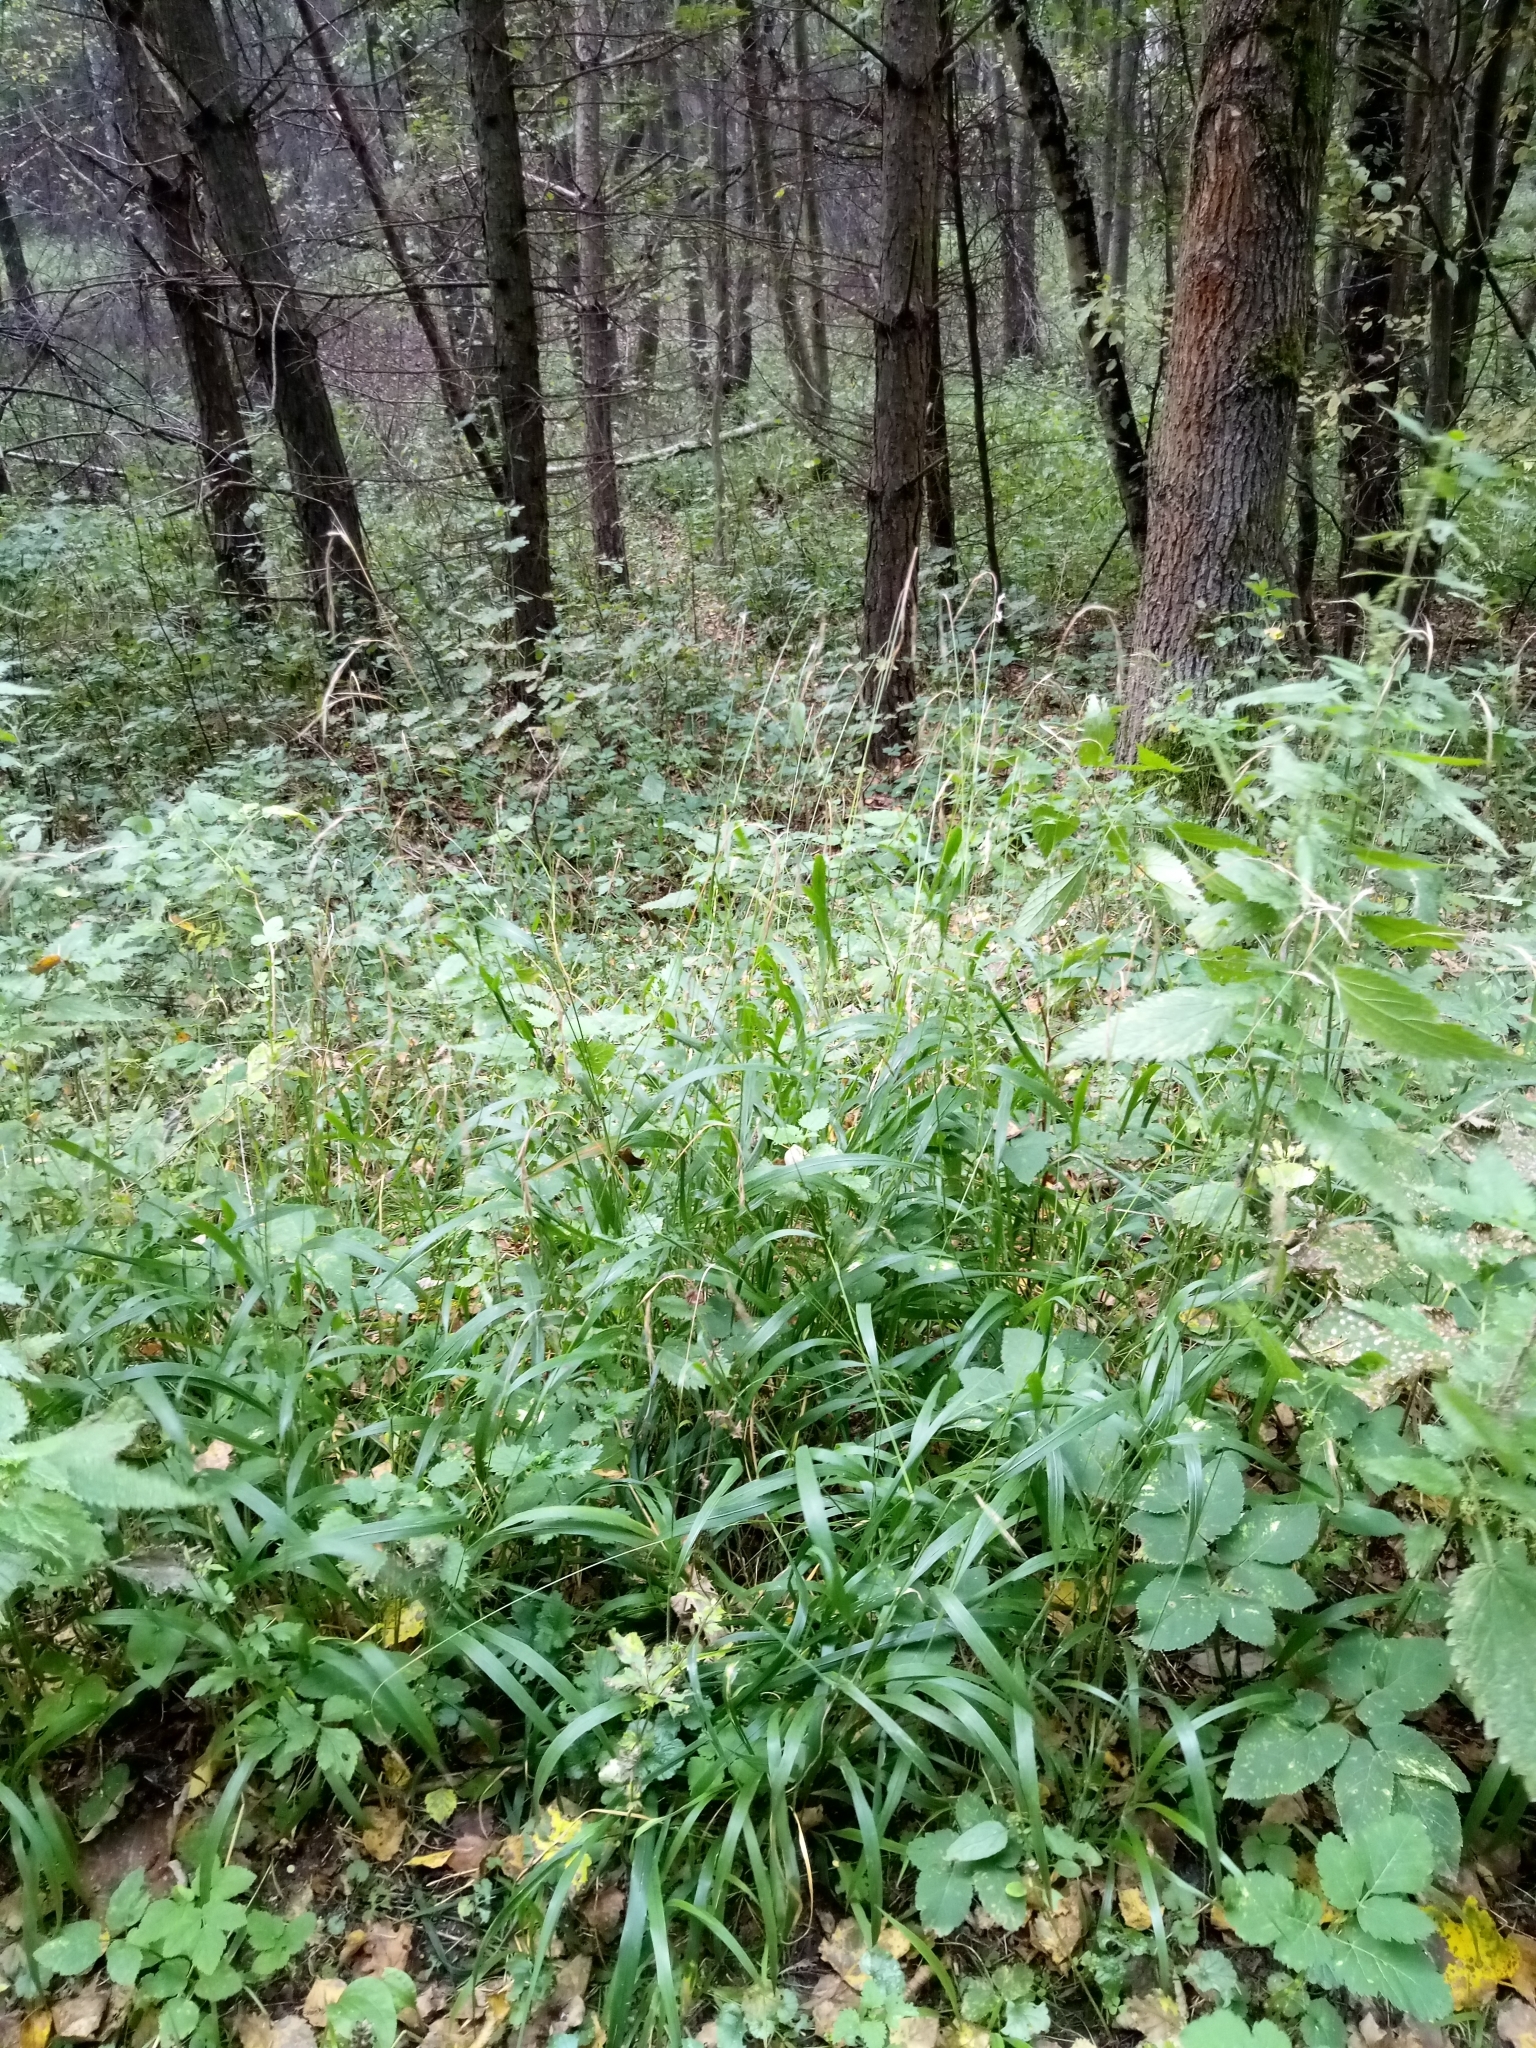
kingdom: Plantae
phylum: Tracheophyta
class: Liliopsida
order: Poales
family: Poaceae
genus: Brachypodium
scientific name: Brachypodium sylvaticum
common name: False-brome
